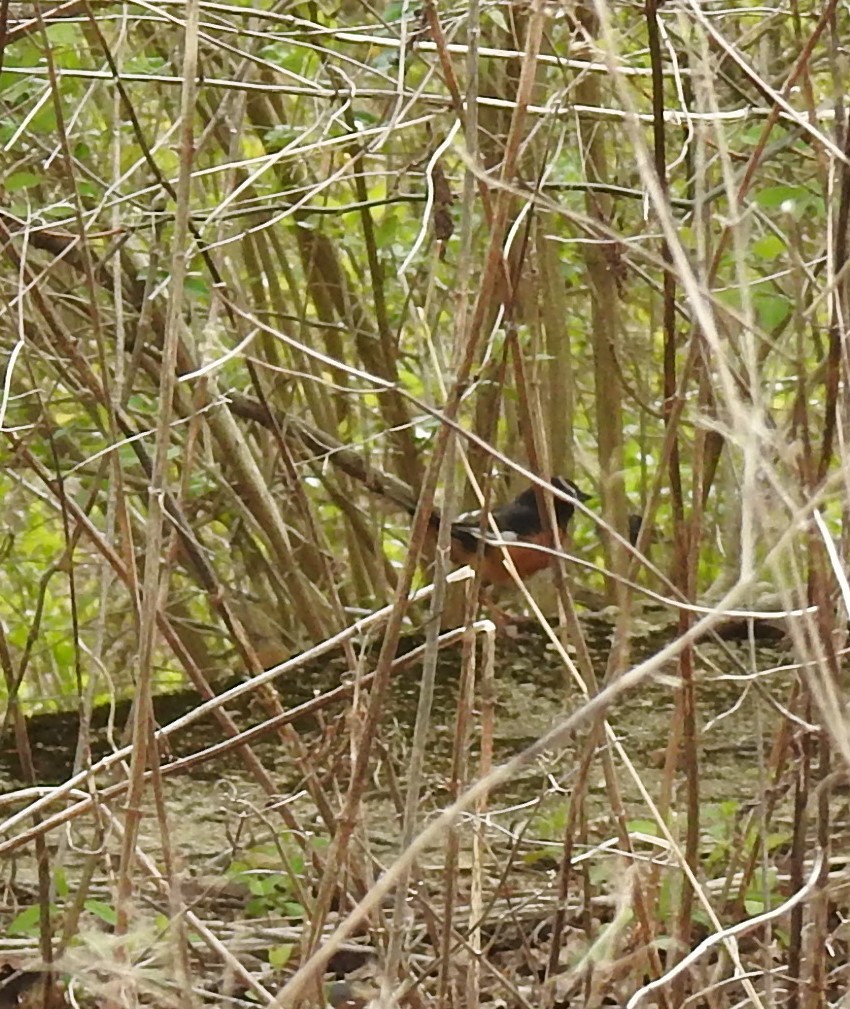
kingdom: Animalia
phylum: Chordata
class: Aves
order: Passeriformes
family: Passerellidae
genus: Pipilo
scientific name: Pipilo erythrophthalmus
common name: Eastern towhee
